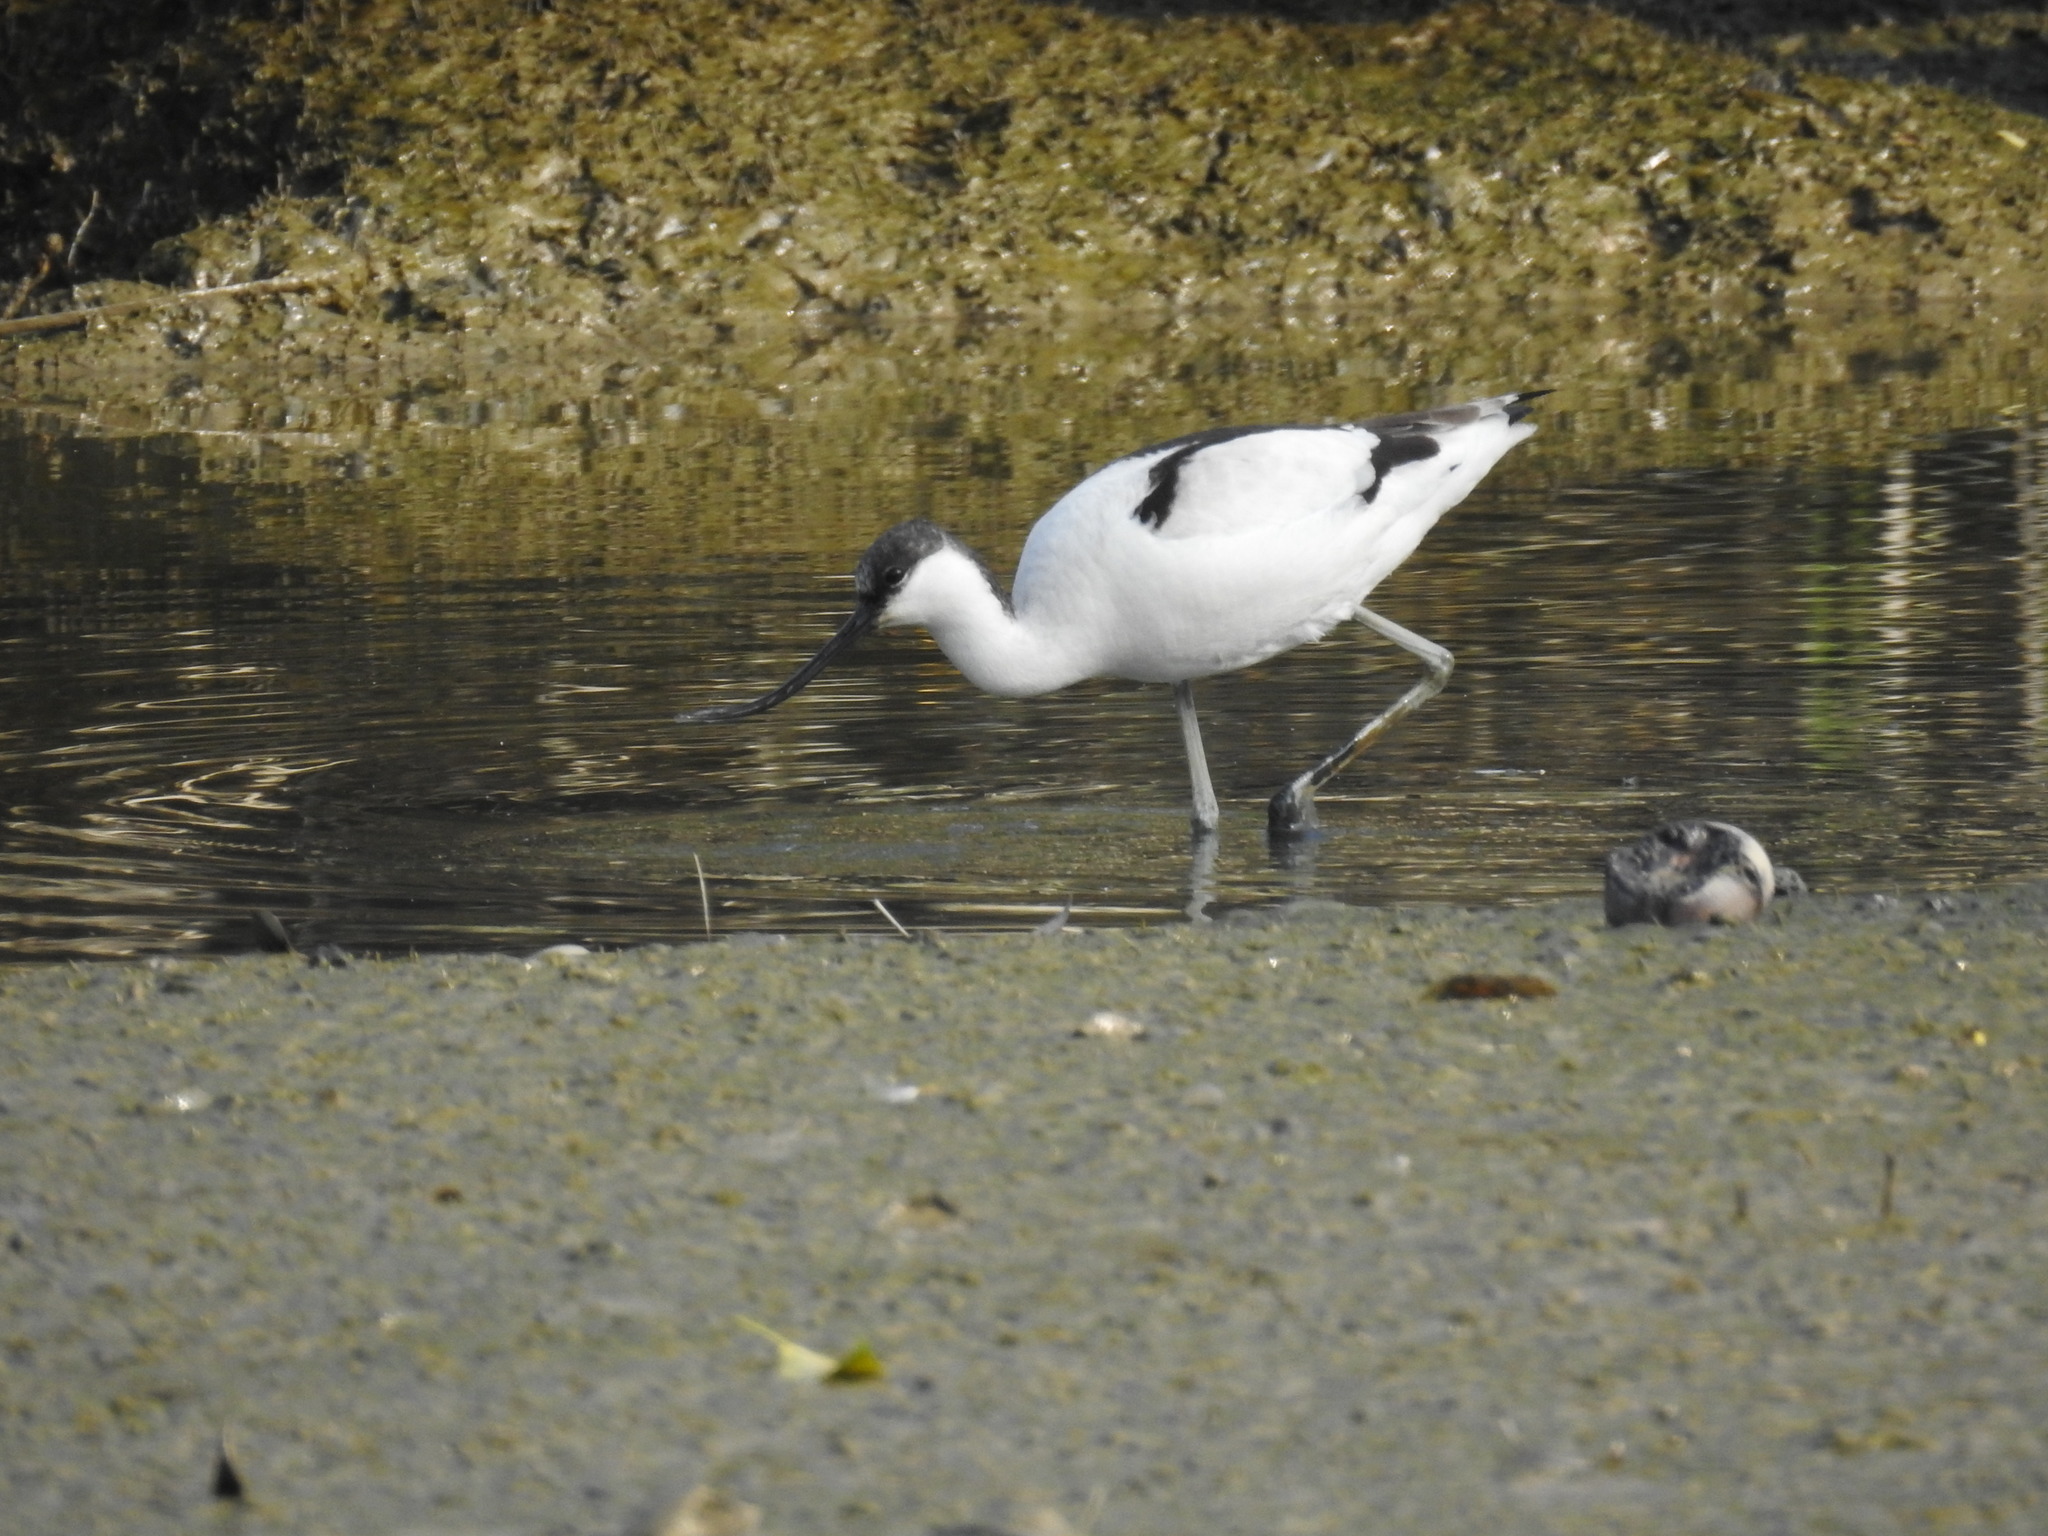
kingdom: Animalia
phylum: Chordata
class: Aves
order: Charadriiformes
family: Recurvirostridae
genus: Recurvirostra
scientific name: Recurvirostra avosetta
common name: Pied avocet
